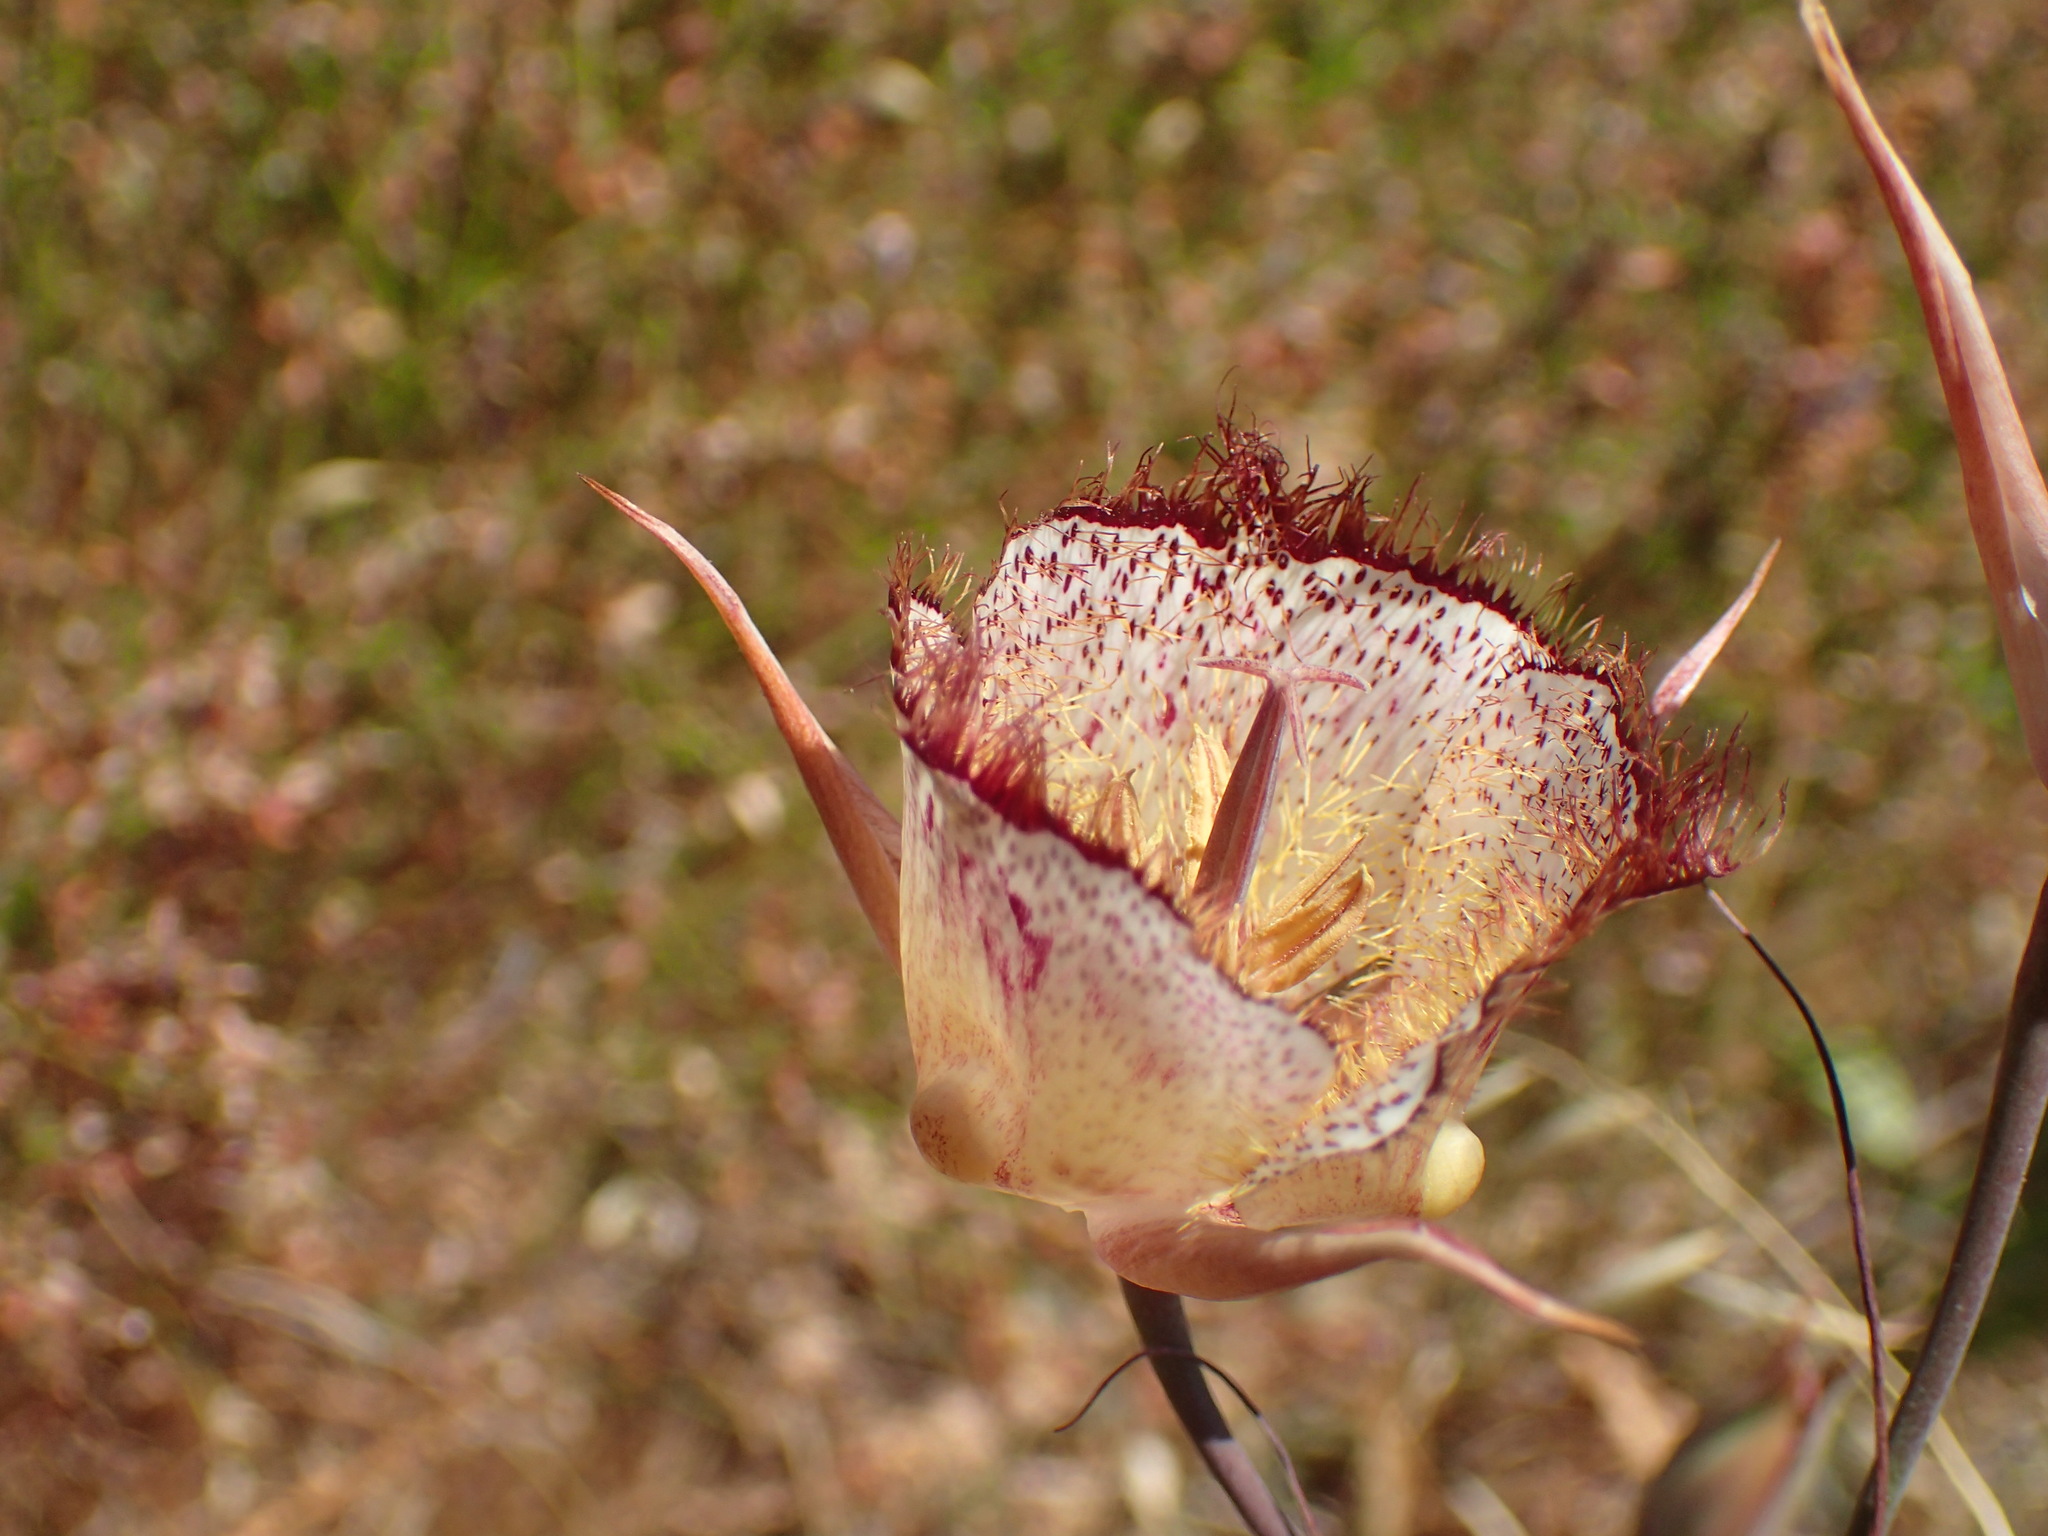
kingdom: Plantae
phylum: Tracheophyta
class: Liliopsida
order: Liliales
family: Liliaceae
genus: Calochortus
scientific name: Calochortus fimbriatus
